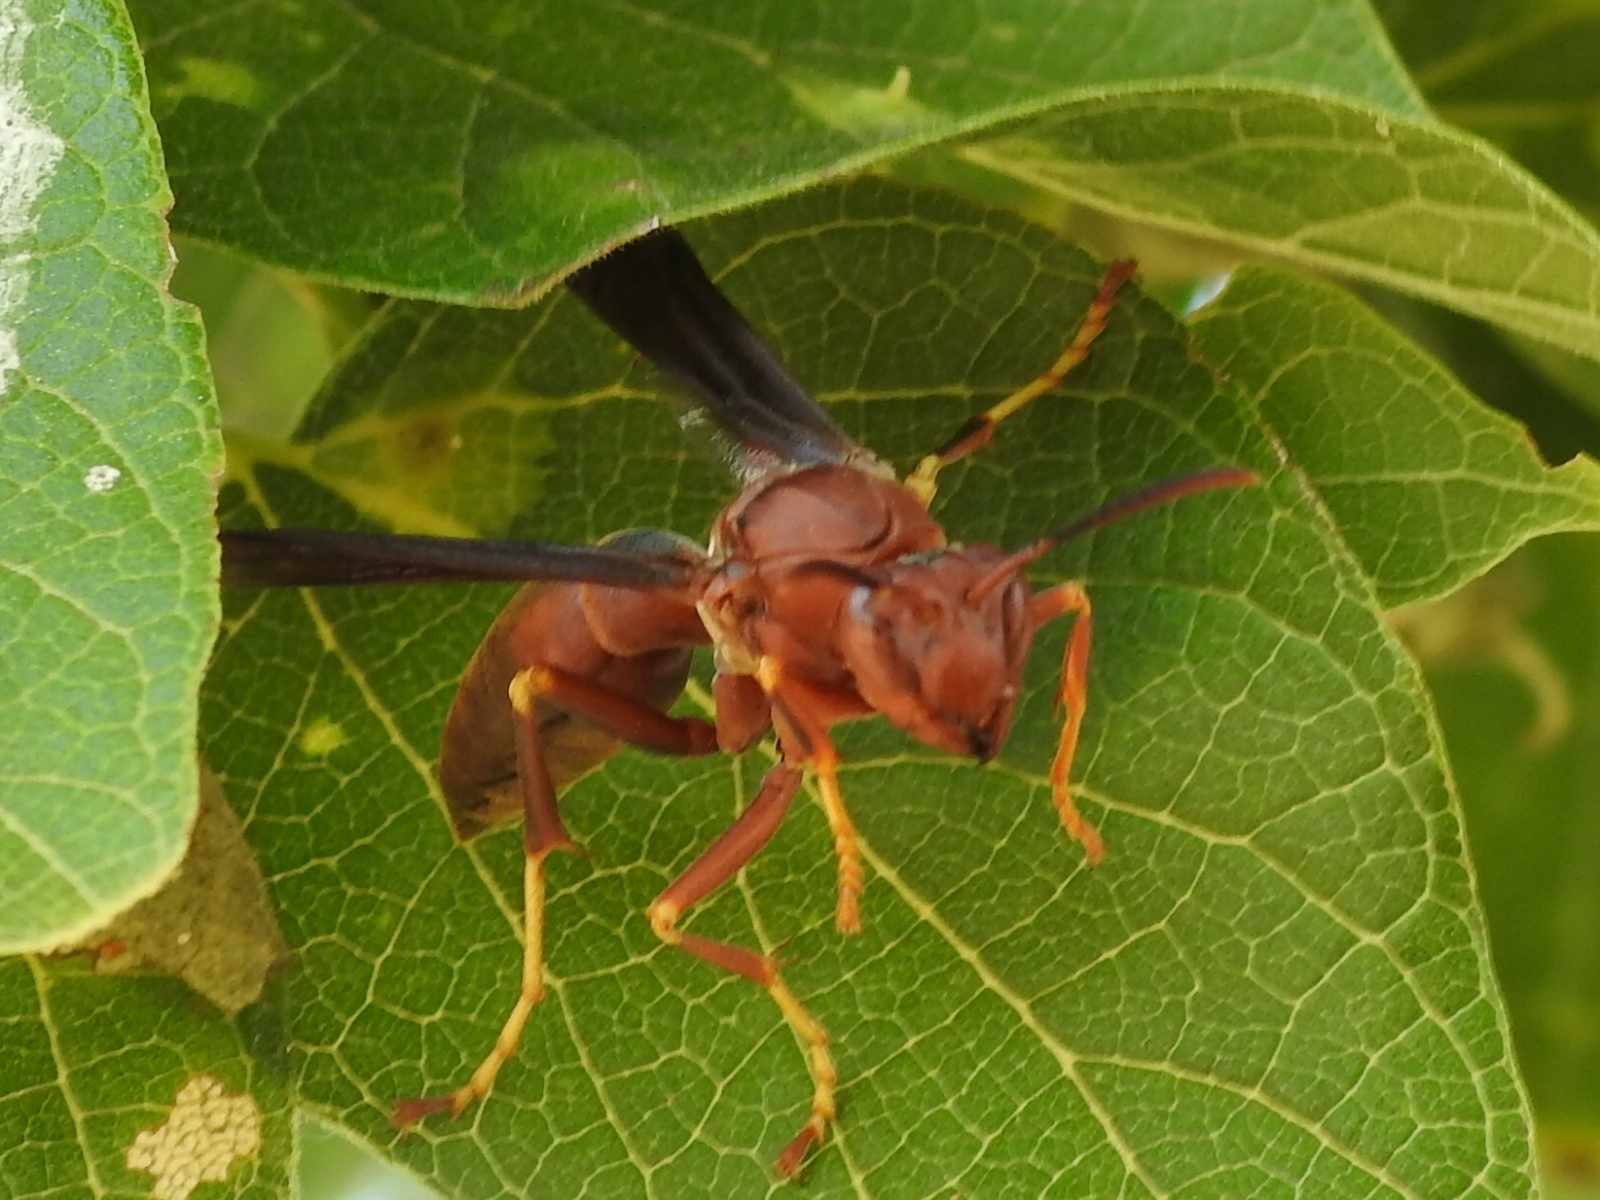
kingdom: Animalia
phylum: Arthropoda
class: Insecta
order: Hymenoptera
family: Vespidae
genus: Fuscopolistes
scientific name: Fuscopolistes
